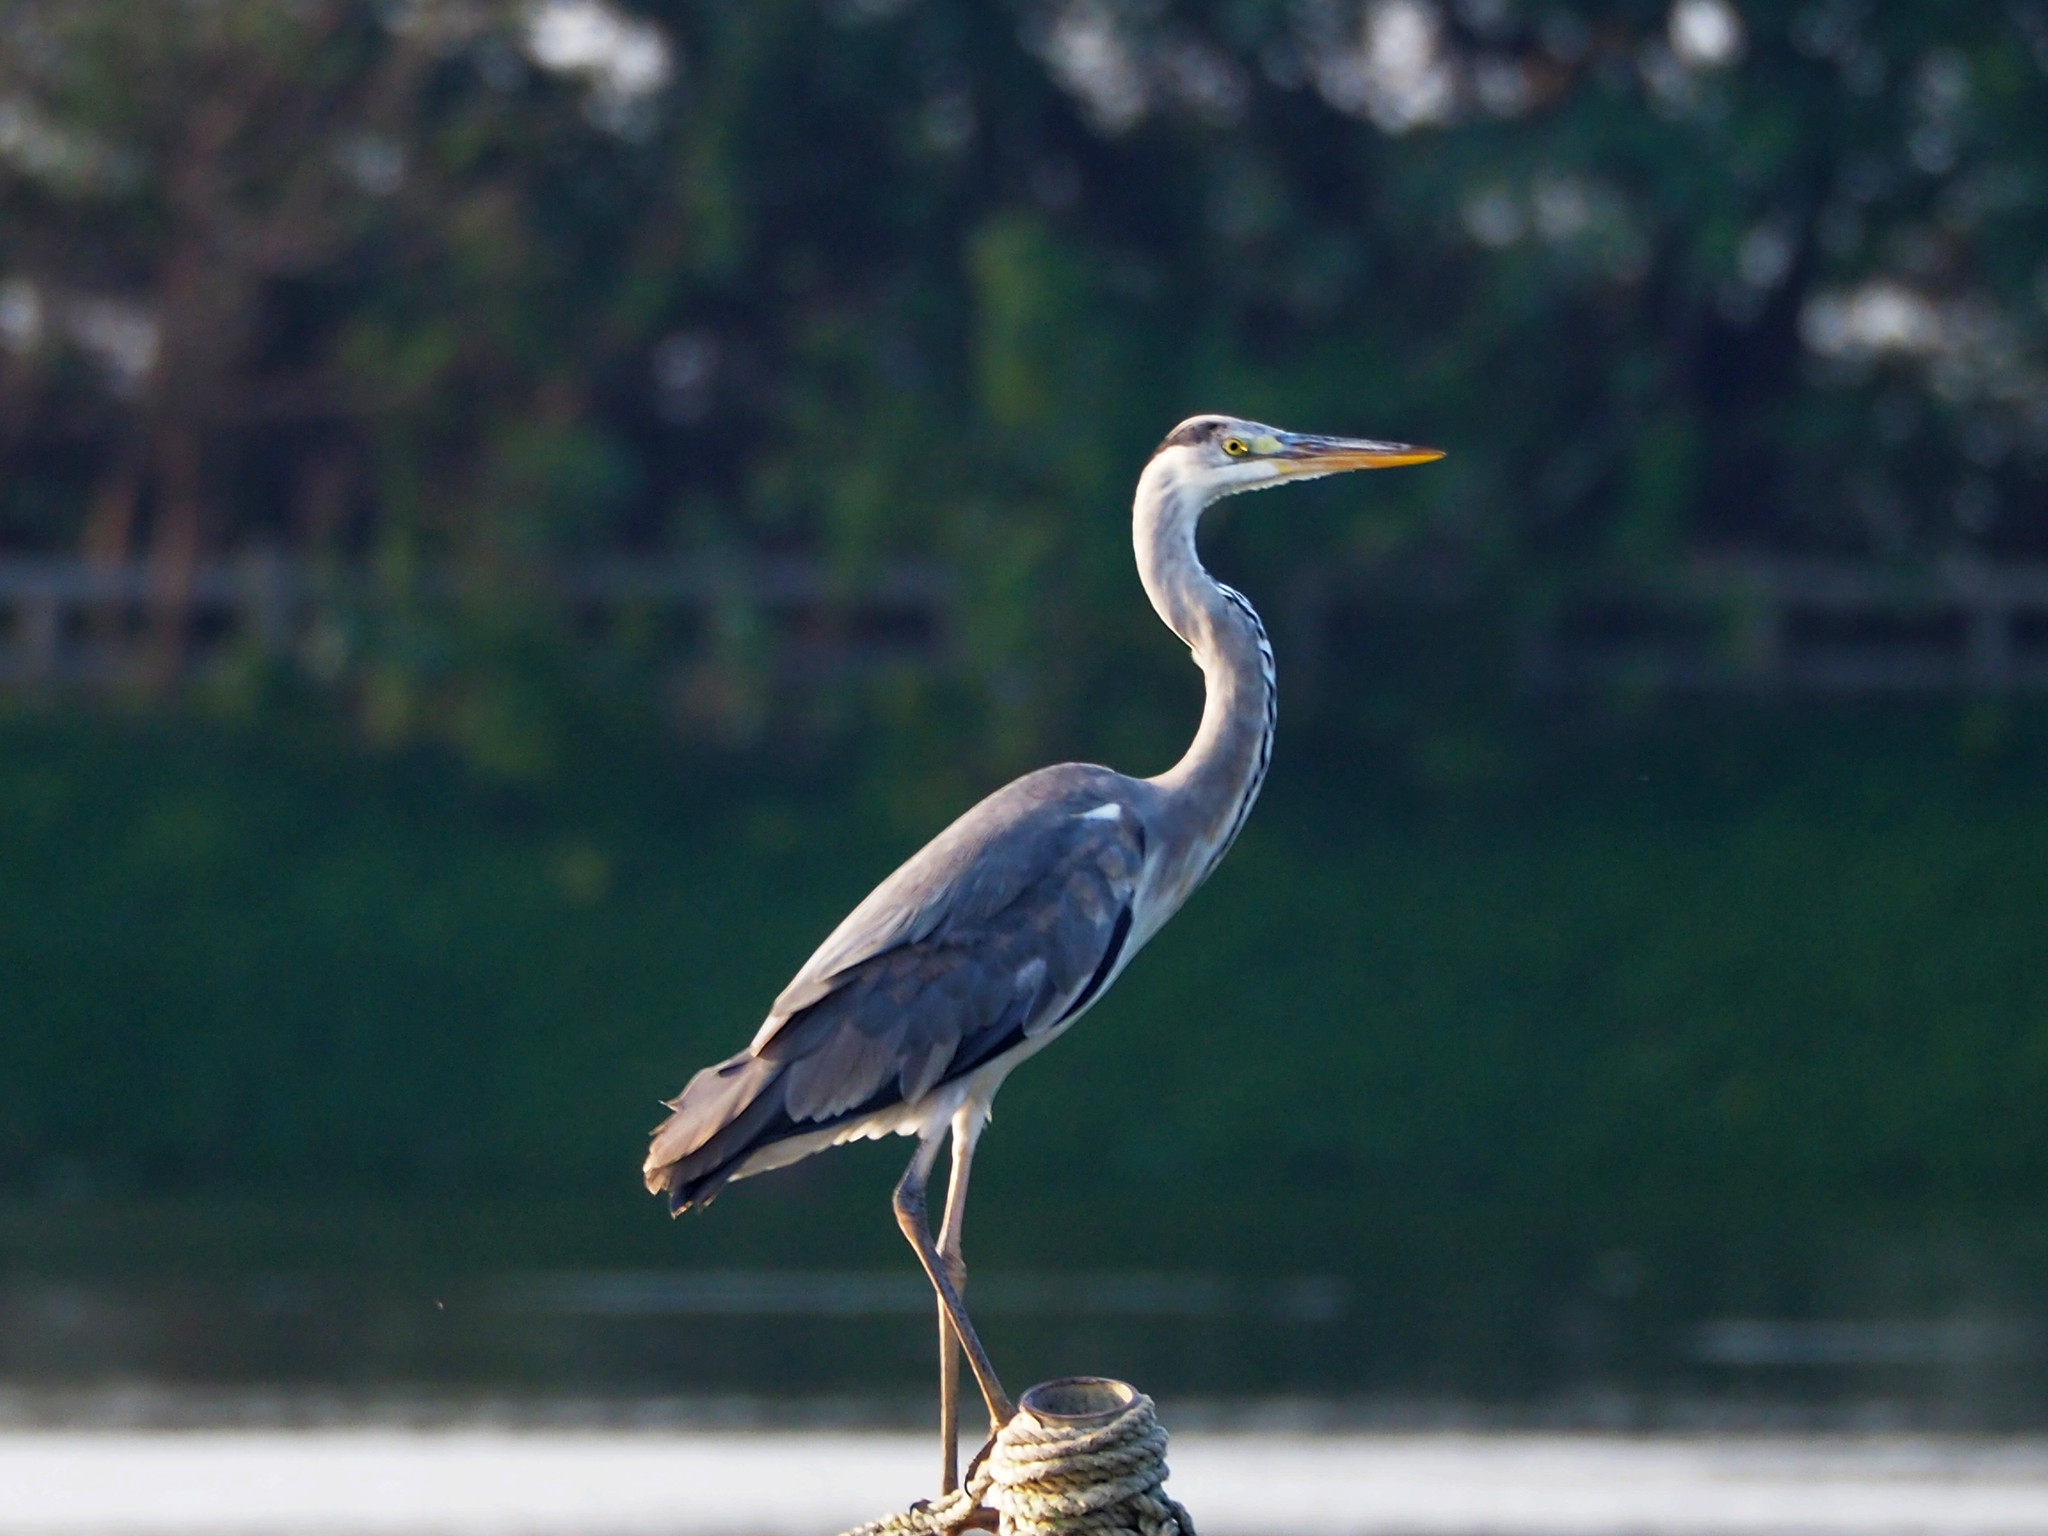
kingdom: Animalia
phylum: Chordata
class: Aves
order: Pelecaniformes
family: Ardeidae
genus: Ardea
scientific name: Ardea cinerea
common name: Grey heron
